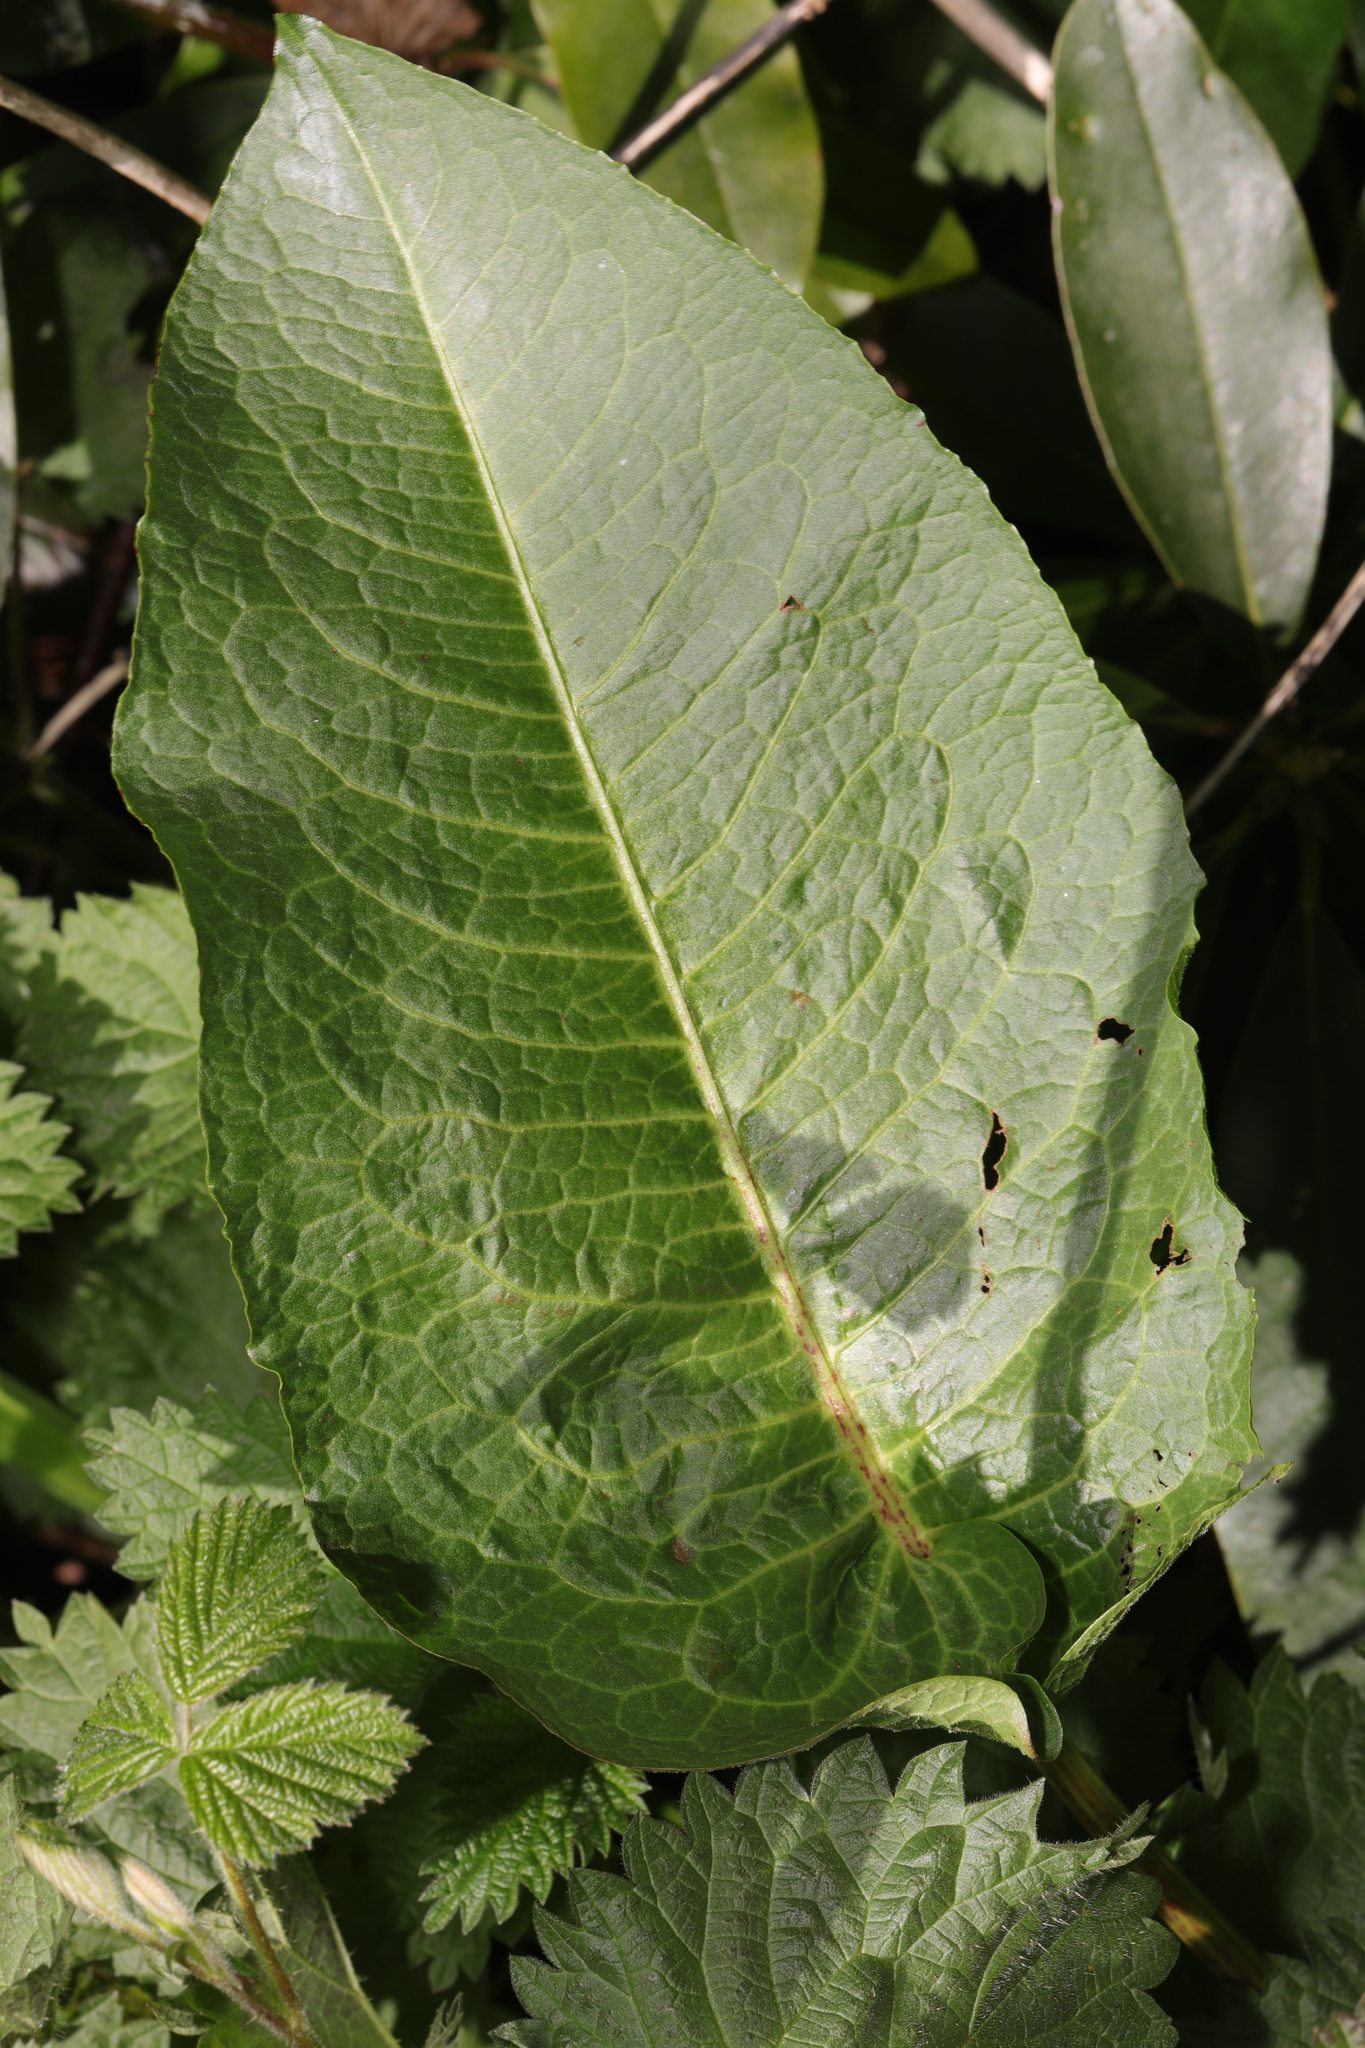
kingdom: Plantae
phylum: Tracheophyta
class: Magnoliopsida
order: Caryophyllales
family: Polygonaceae
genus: Rumex
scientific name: Rumex obtusifolius
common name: Bitter dock
